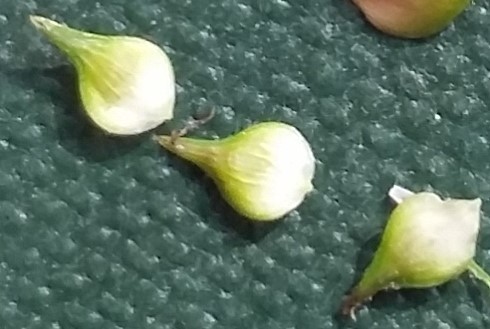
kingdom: Plantae
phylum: Tracheophyta
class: Liliopsida
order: Poales
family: Cyperaceae
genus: Carex
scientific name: Carex vulpinoidea
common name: American fox-sedge
